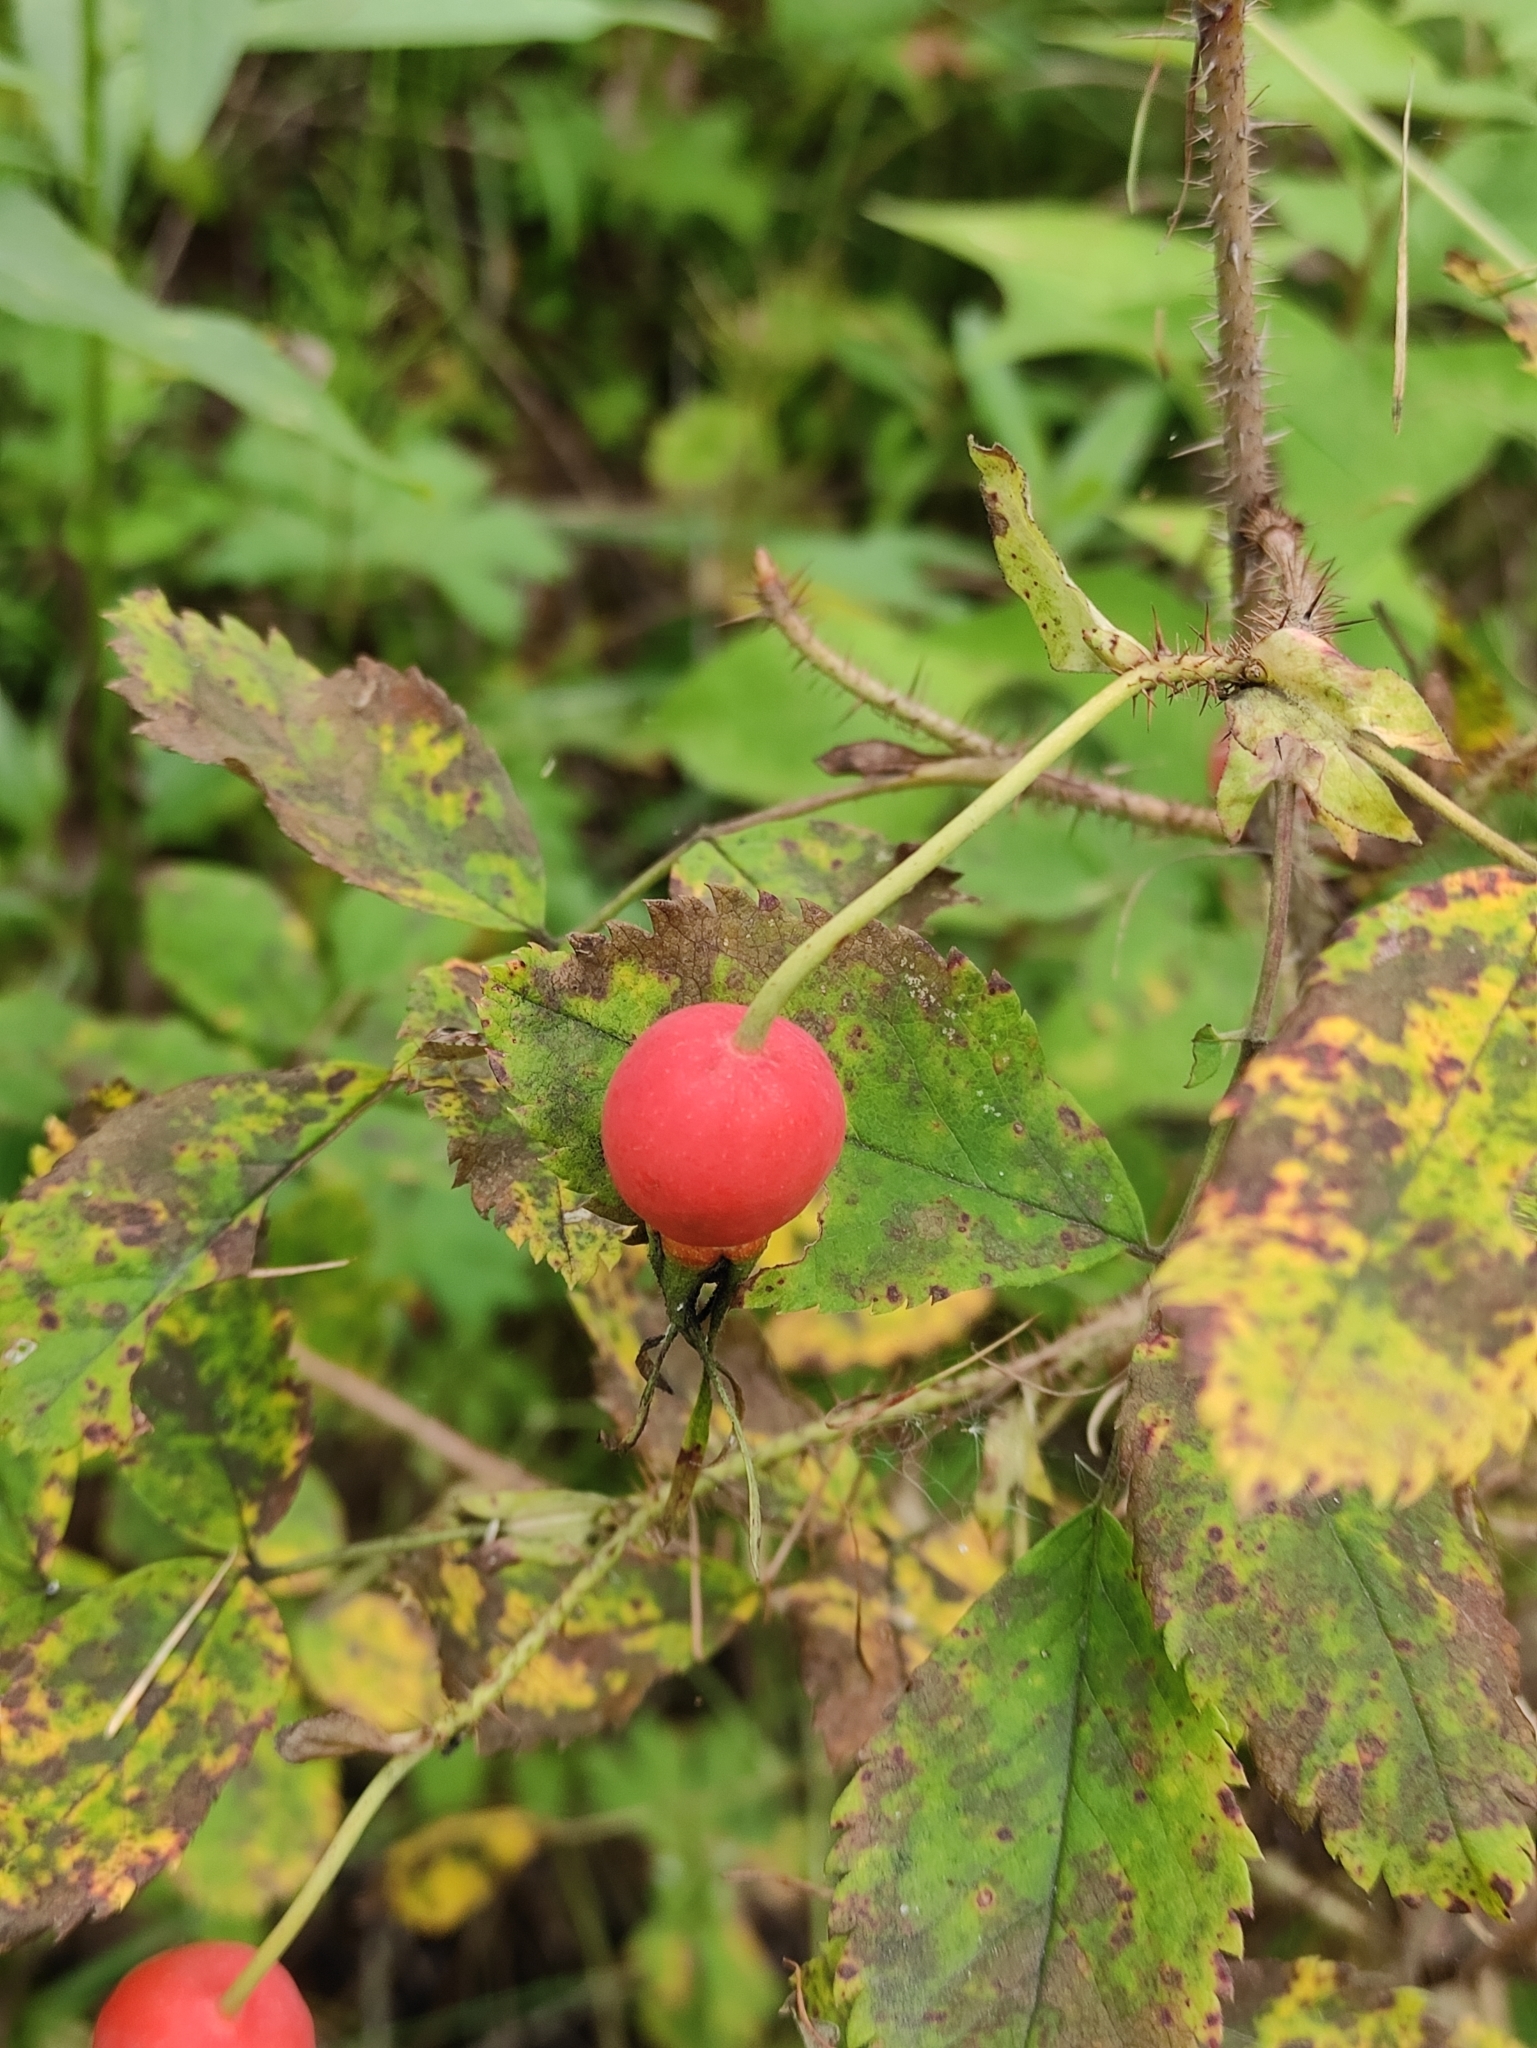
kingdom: Plantae
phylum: Tracheophyta
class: Magnoliopsida
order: Rosales
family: Rosaceae
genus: Rosa
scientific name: Rosa acicularis
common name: Prickly rose
